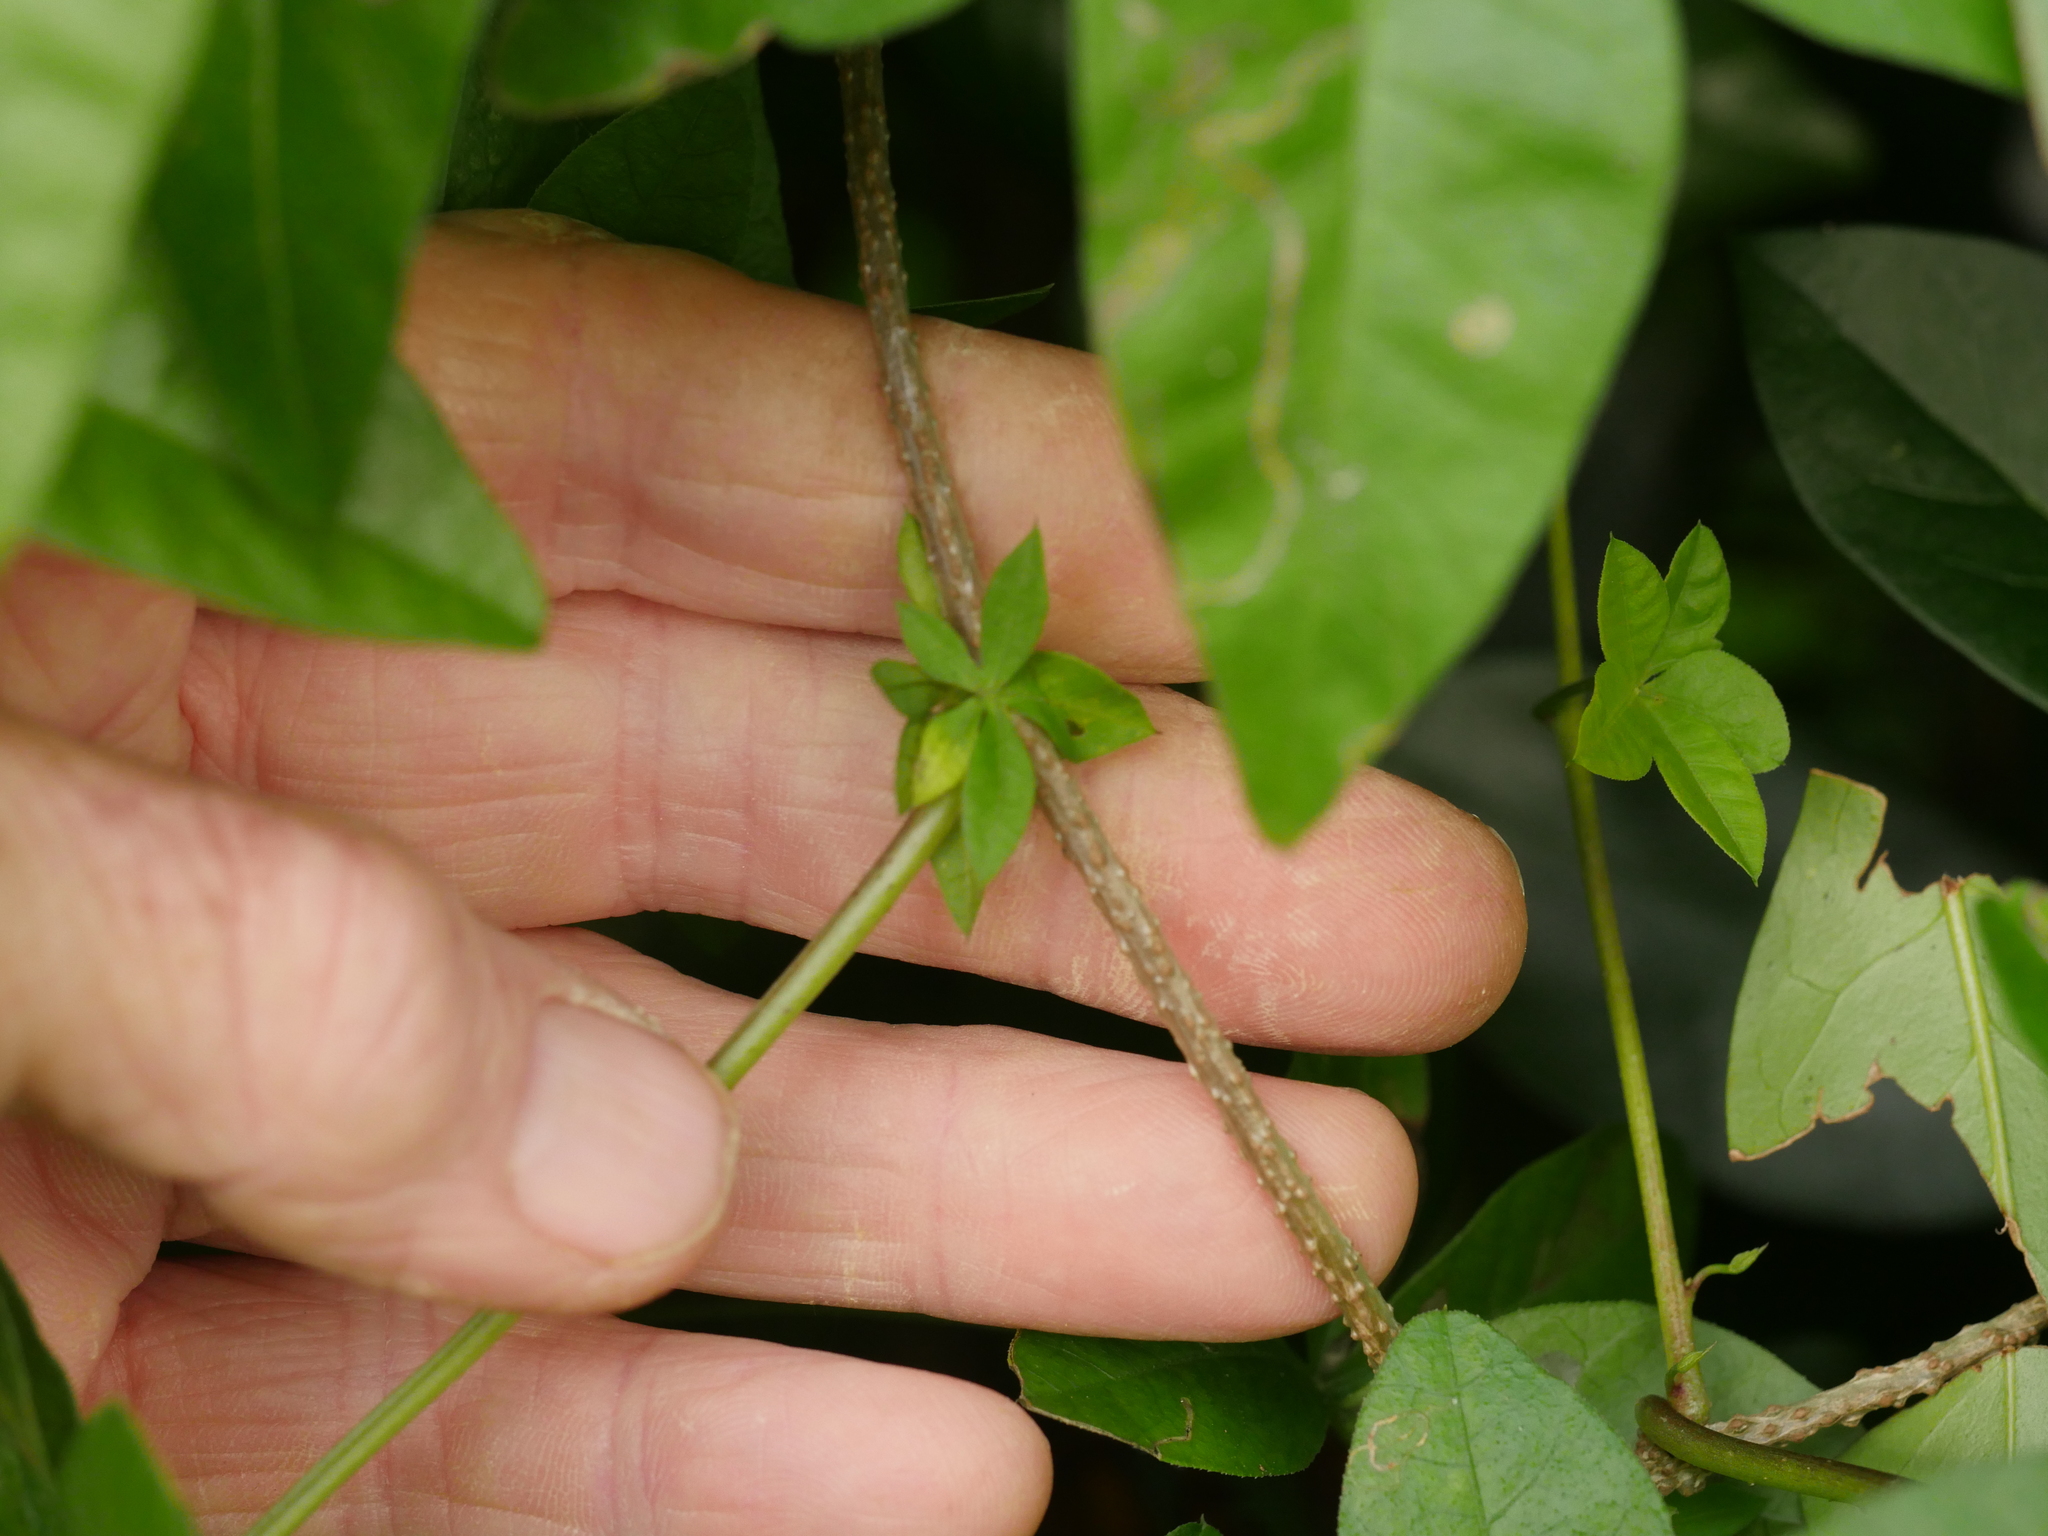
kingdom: Plantae
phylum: Tracheophyta
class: Magnoliopsida
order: Solanales
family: Convolvulaceae
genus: Ipomoea
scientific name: Ipomoea cairica
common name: Mile a minute vine
